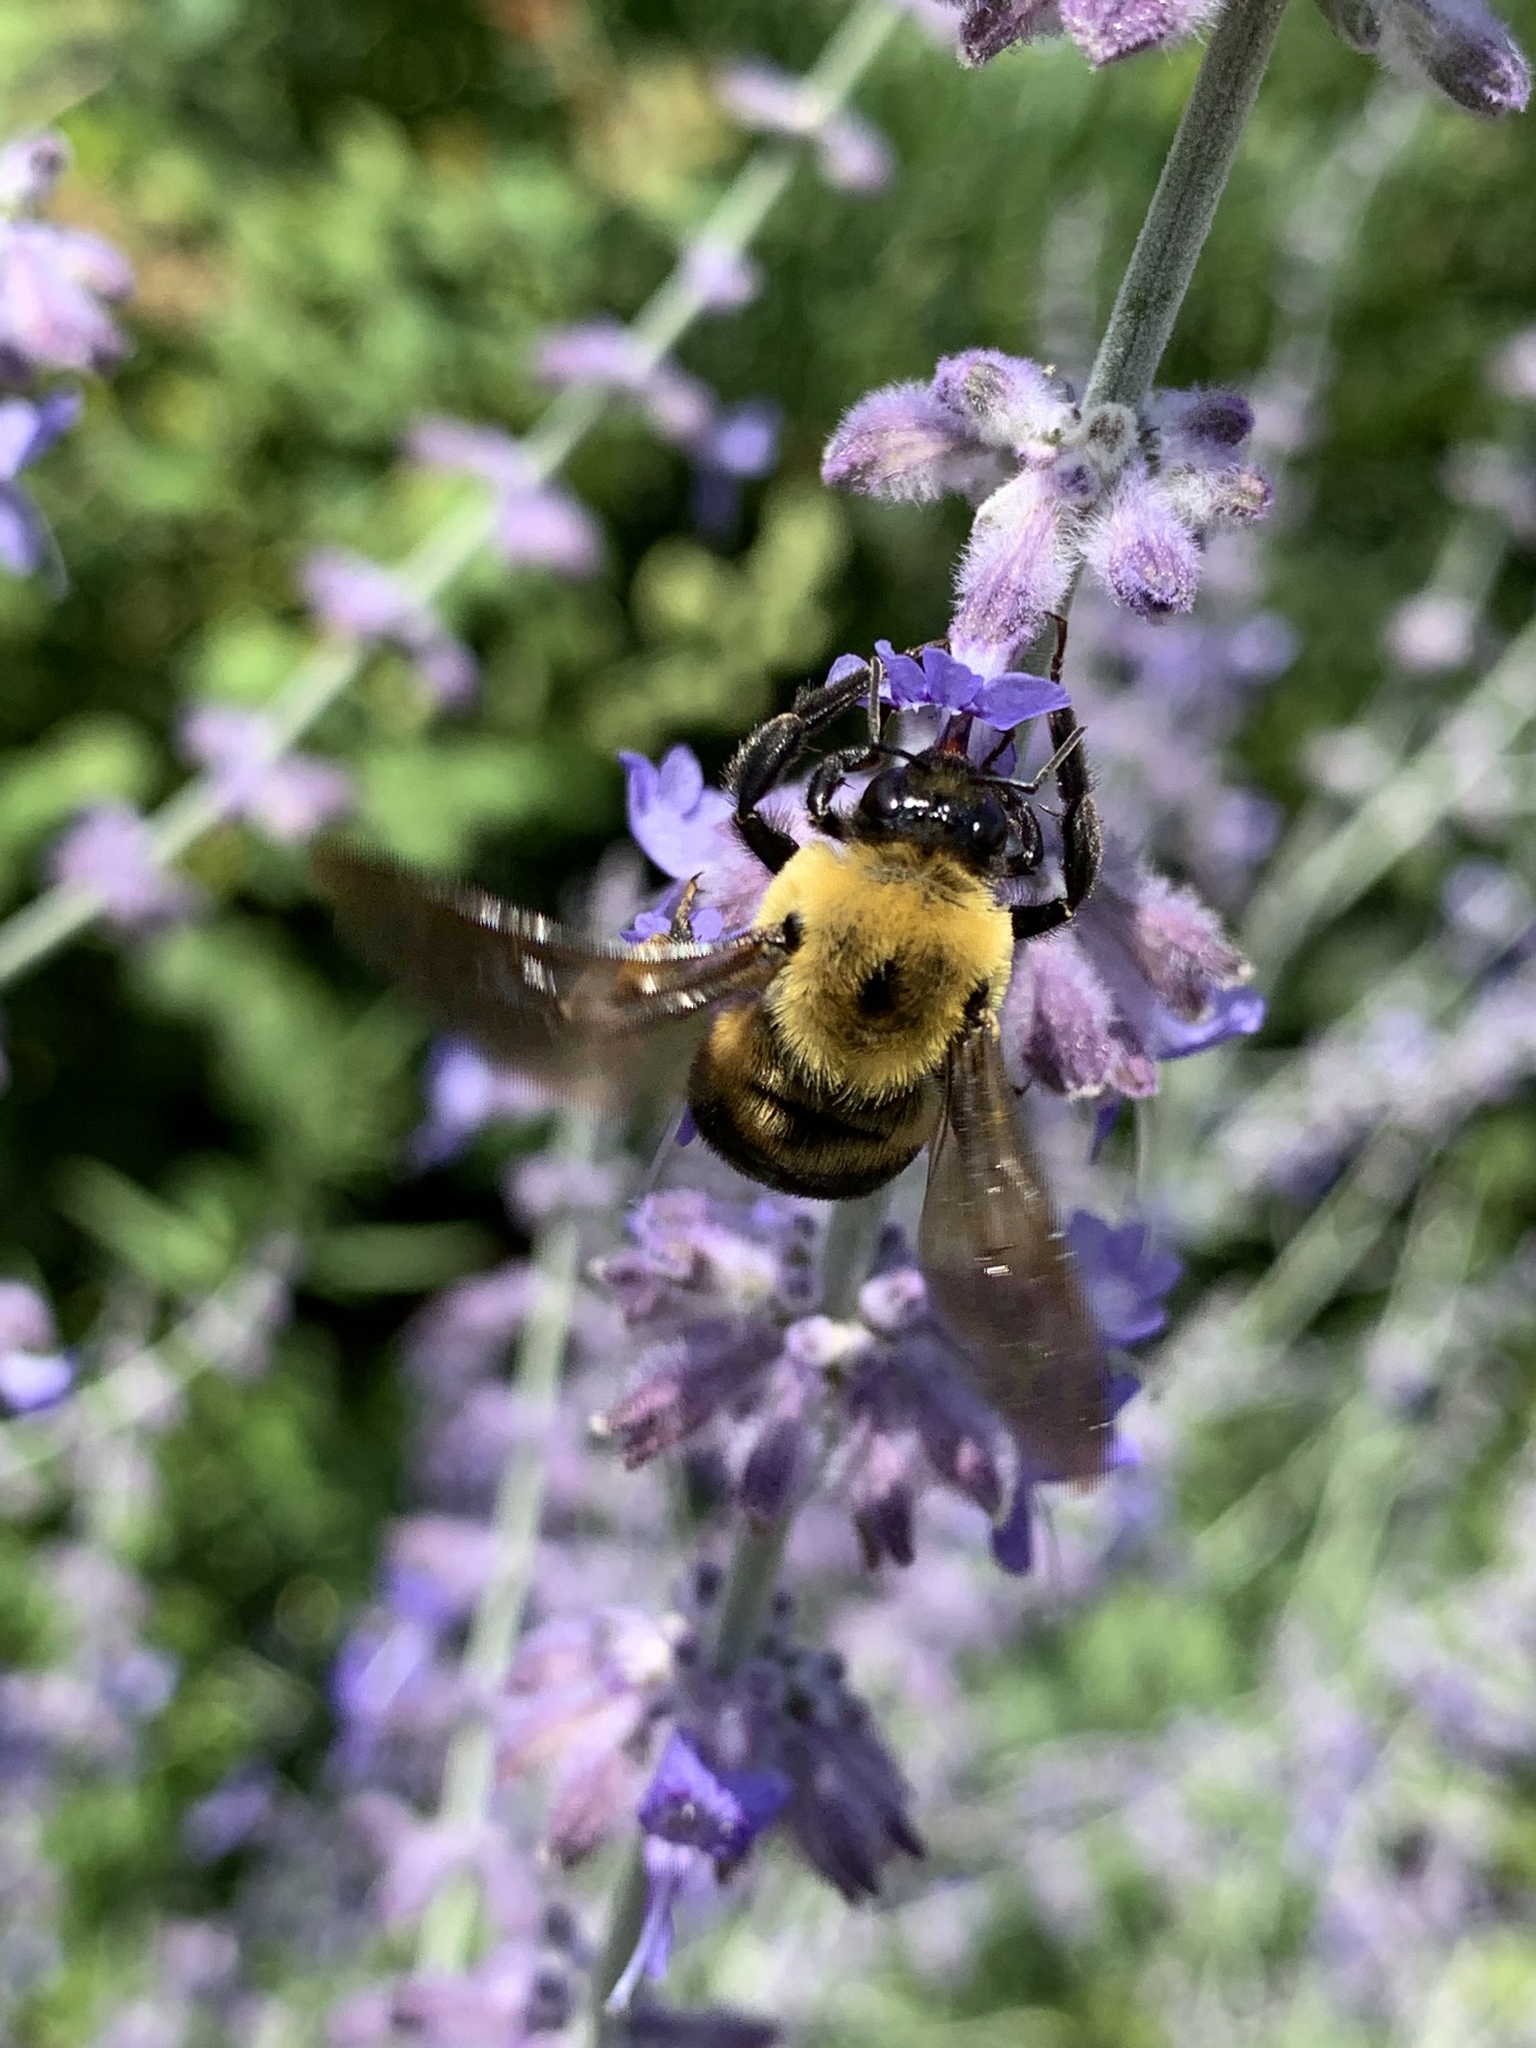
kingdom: Animalia
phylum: Arthropoda
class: Insecta
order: Hymenoptera
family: Apidae
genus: Bombus
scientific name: Bombus griseocollis
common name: Brown-belted bumble bee
